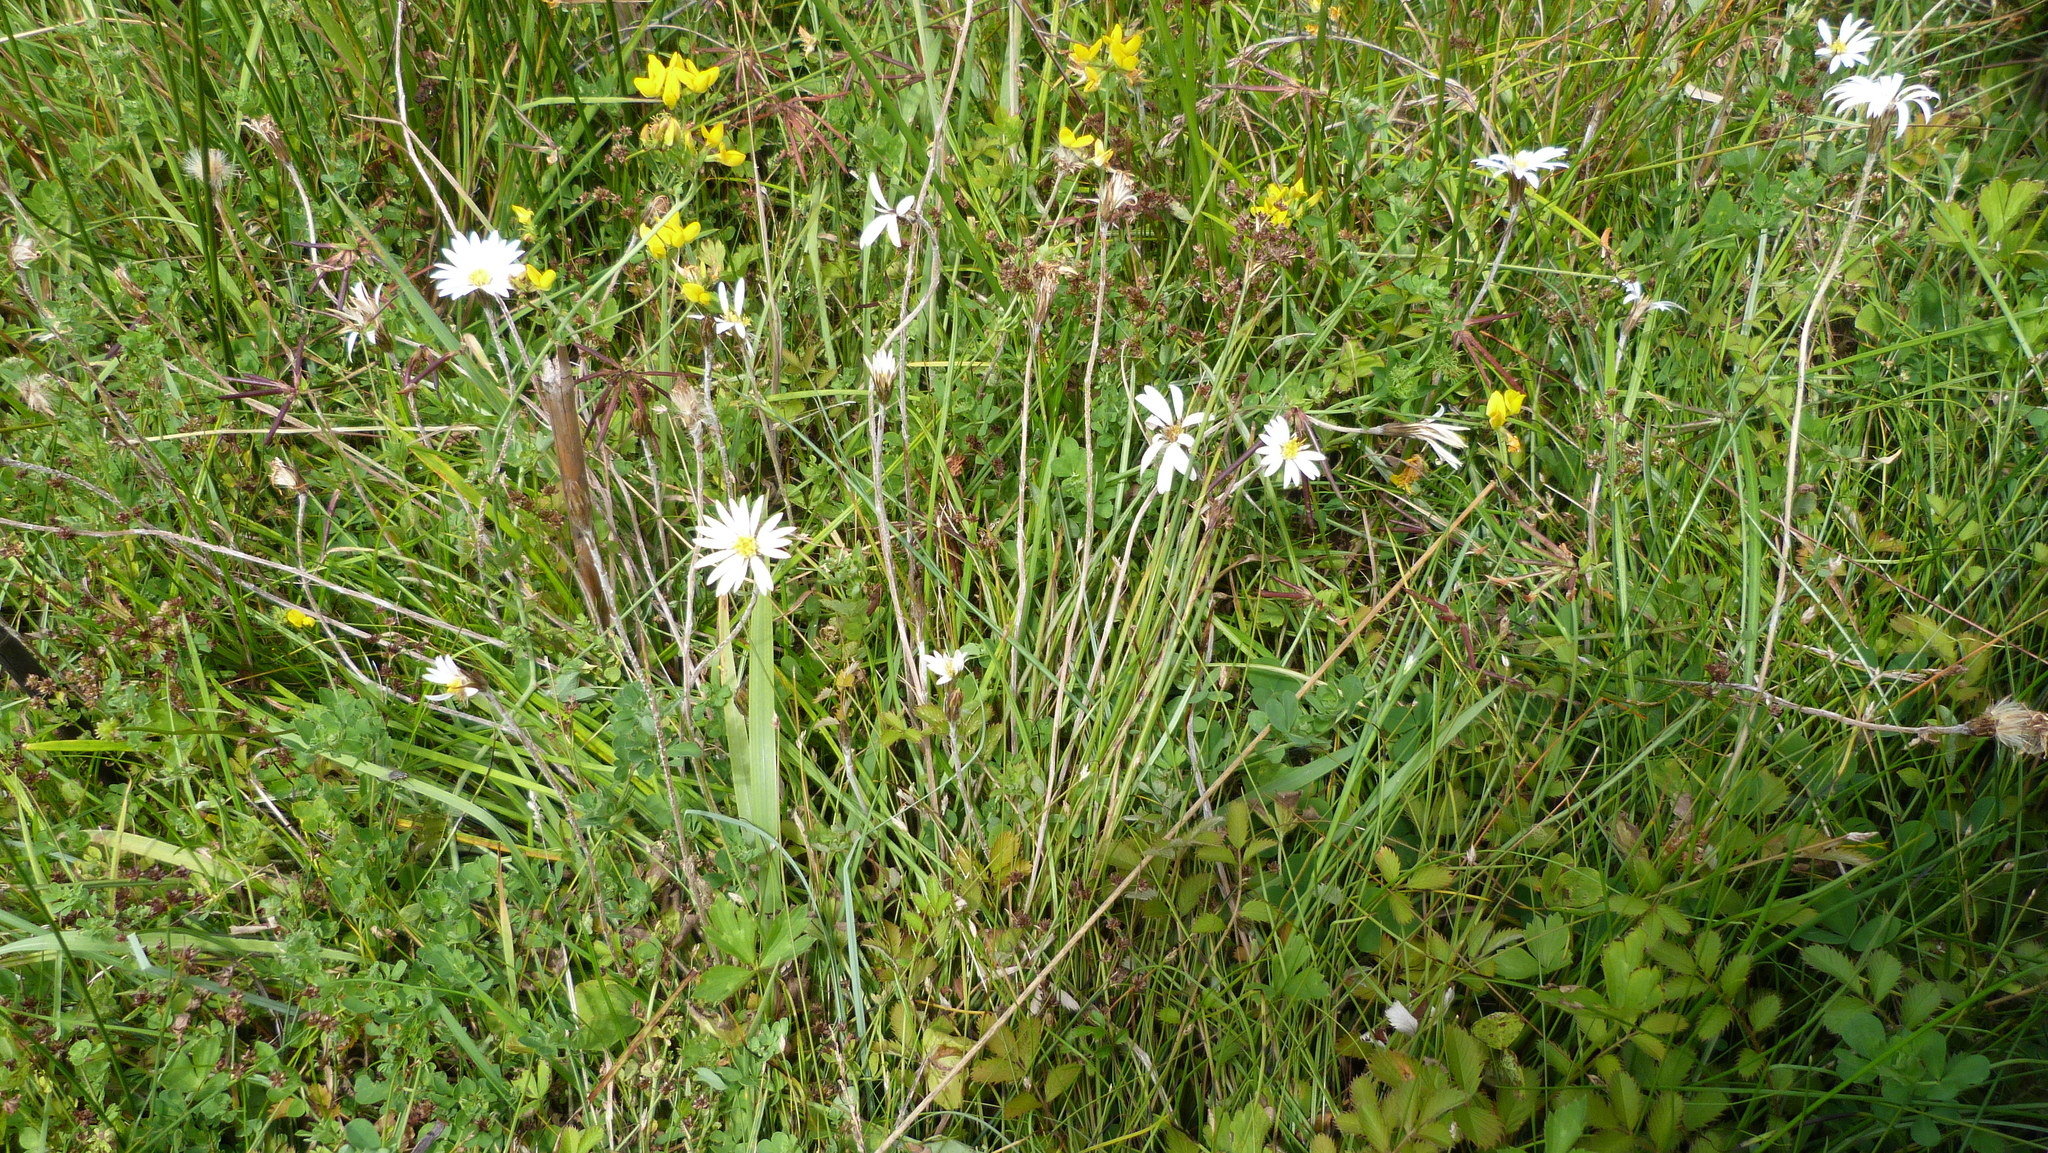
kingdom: Plantae
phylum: Tracheophyta
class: Magnoliopsida
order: Asterales
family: Asteraceae
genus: Celmisia
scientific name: Celmisia gracilenta
